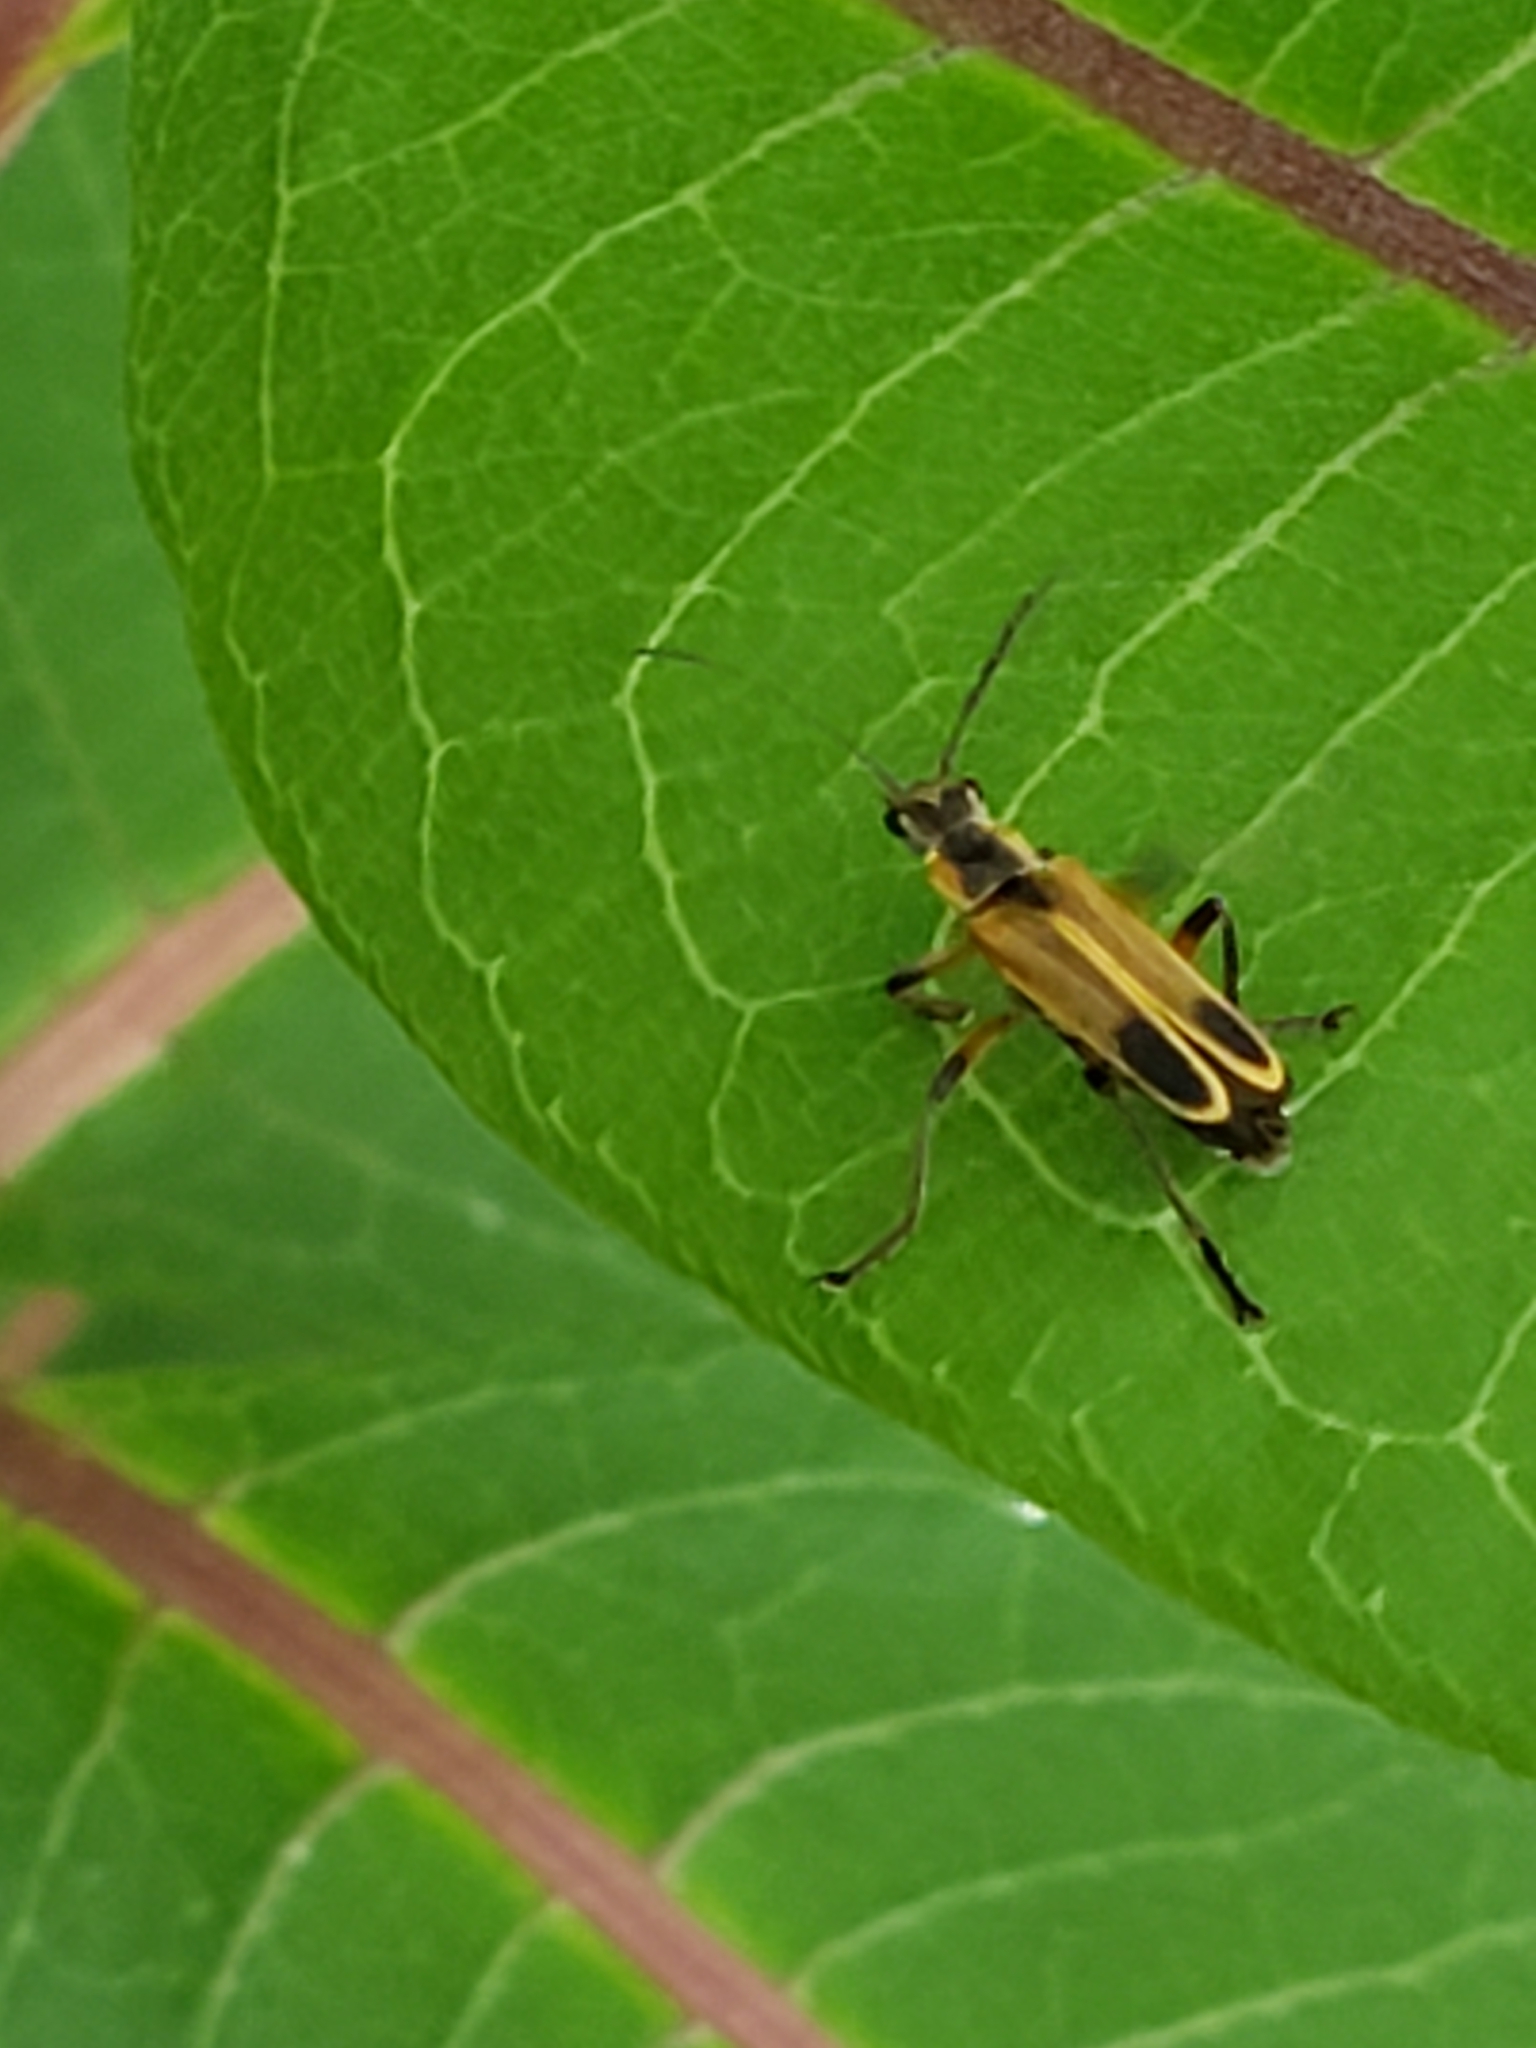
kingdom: Animalia
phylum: Arthropoda
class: Insecta
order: Coleoptera
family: Cantharidae
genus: Chauliognathus
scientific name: Chauliognathus marginatus
